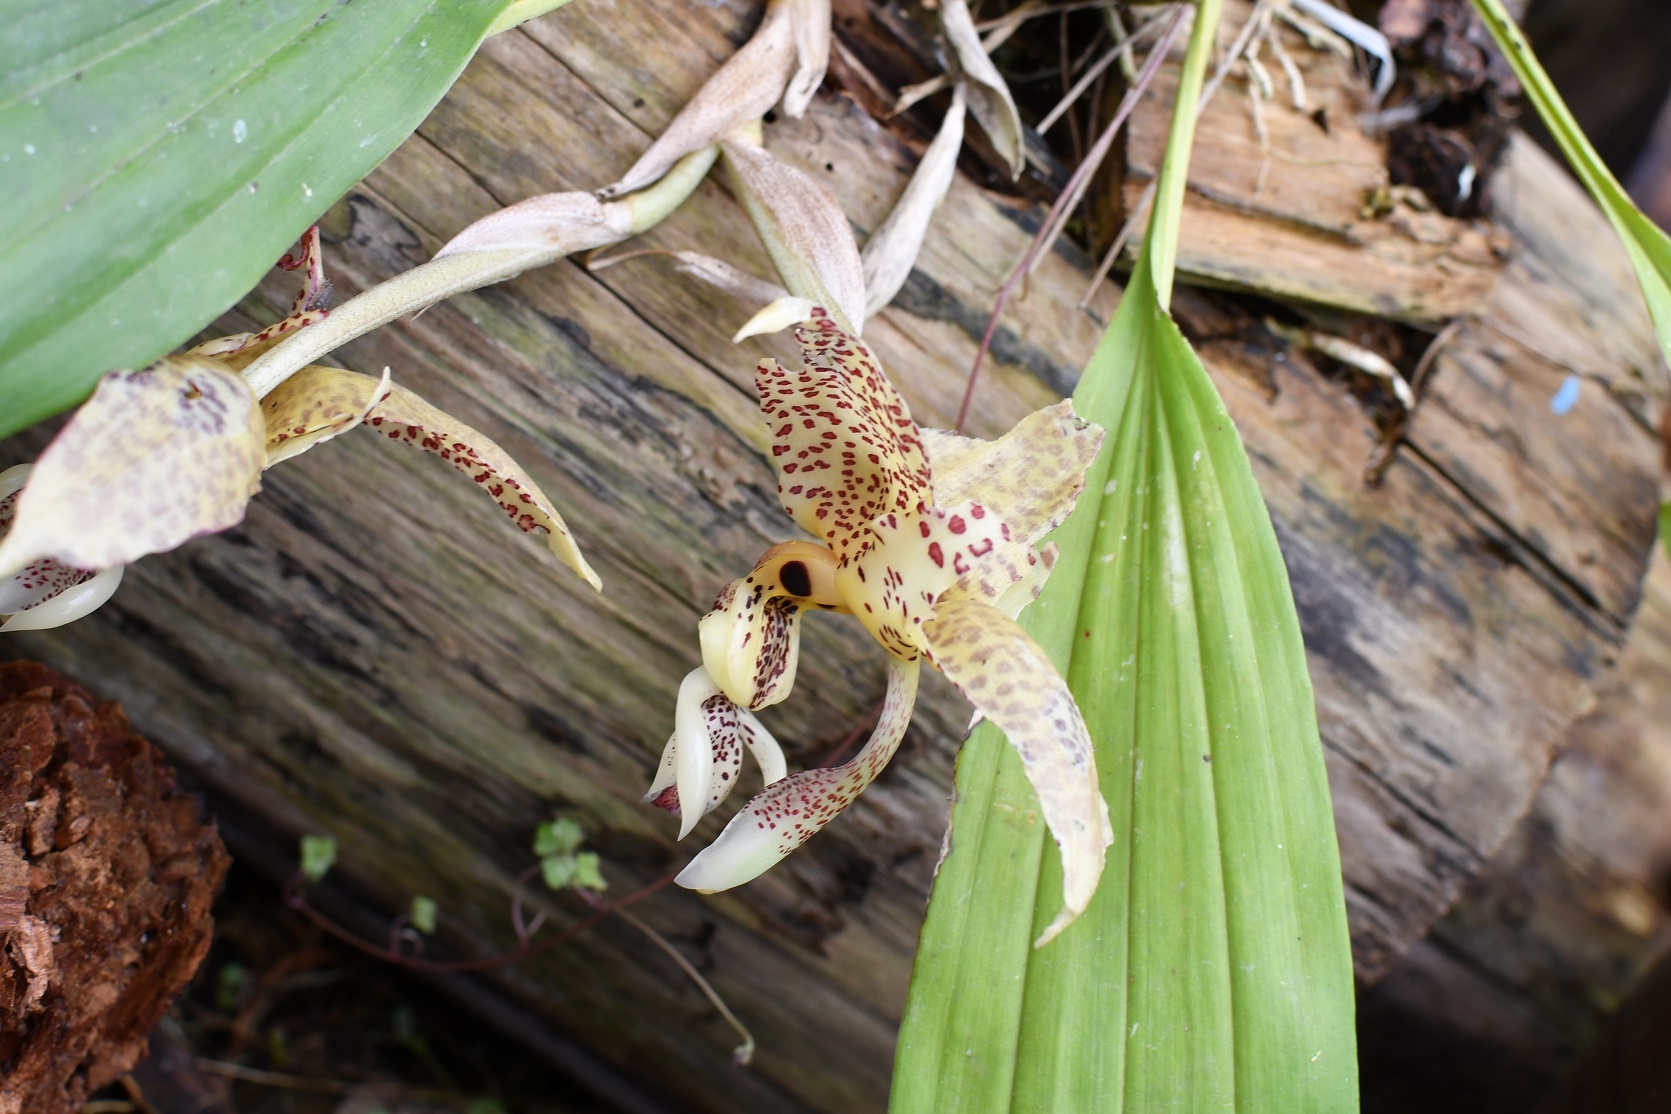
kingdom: Plantae
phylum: Tracheophyta
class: Liliopsida
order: Asparagales
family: Orchidaceae
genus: Stanhopea
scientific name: Stanhopea oculata
